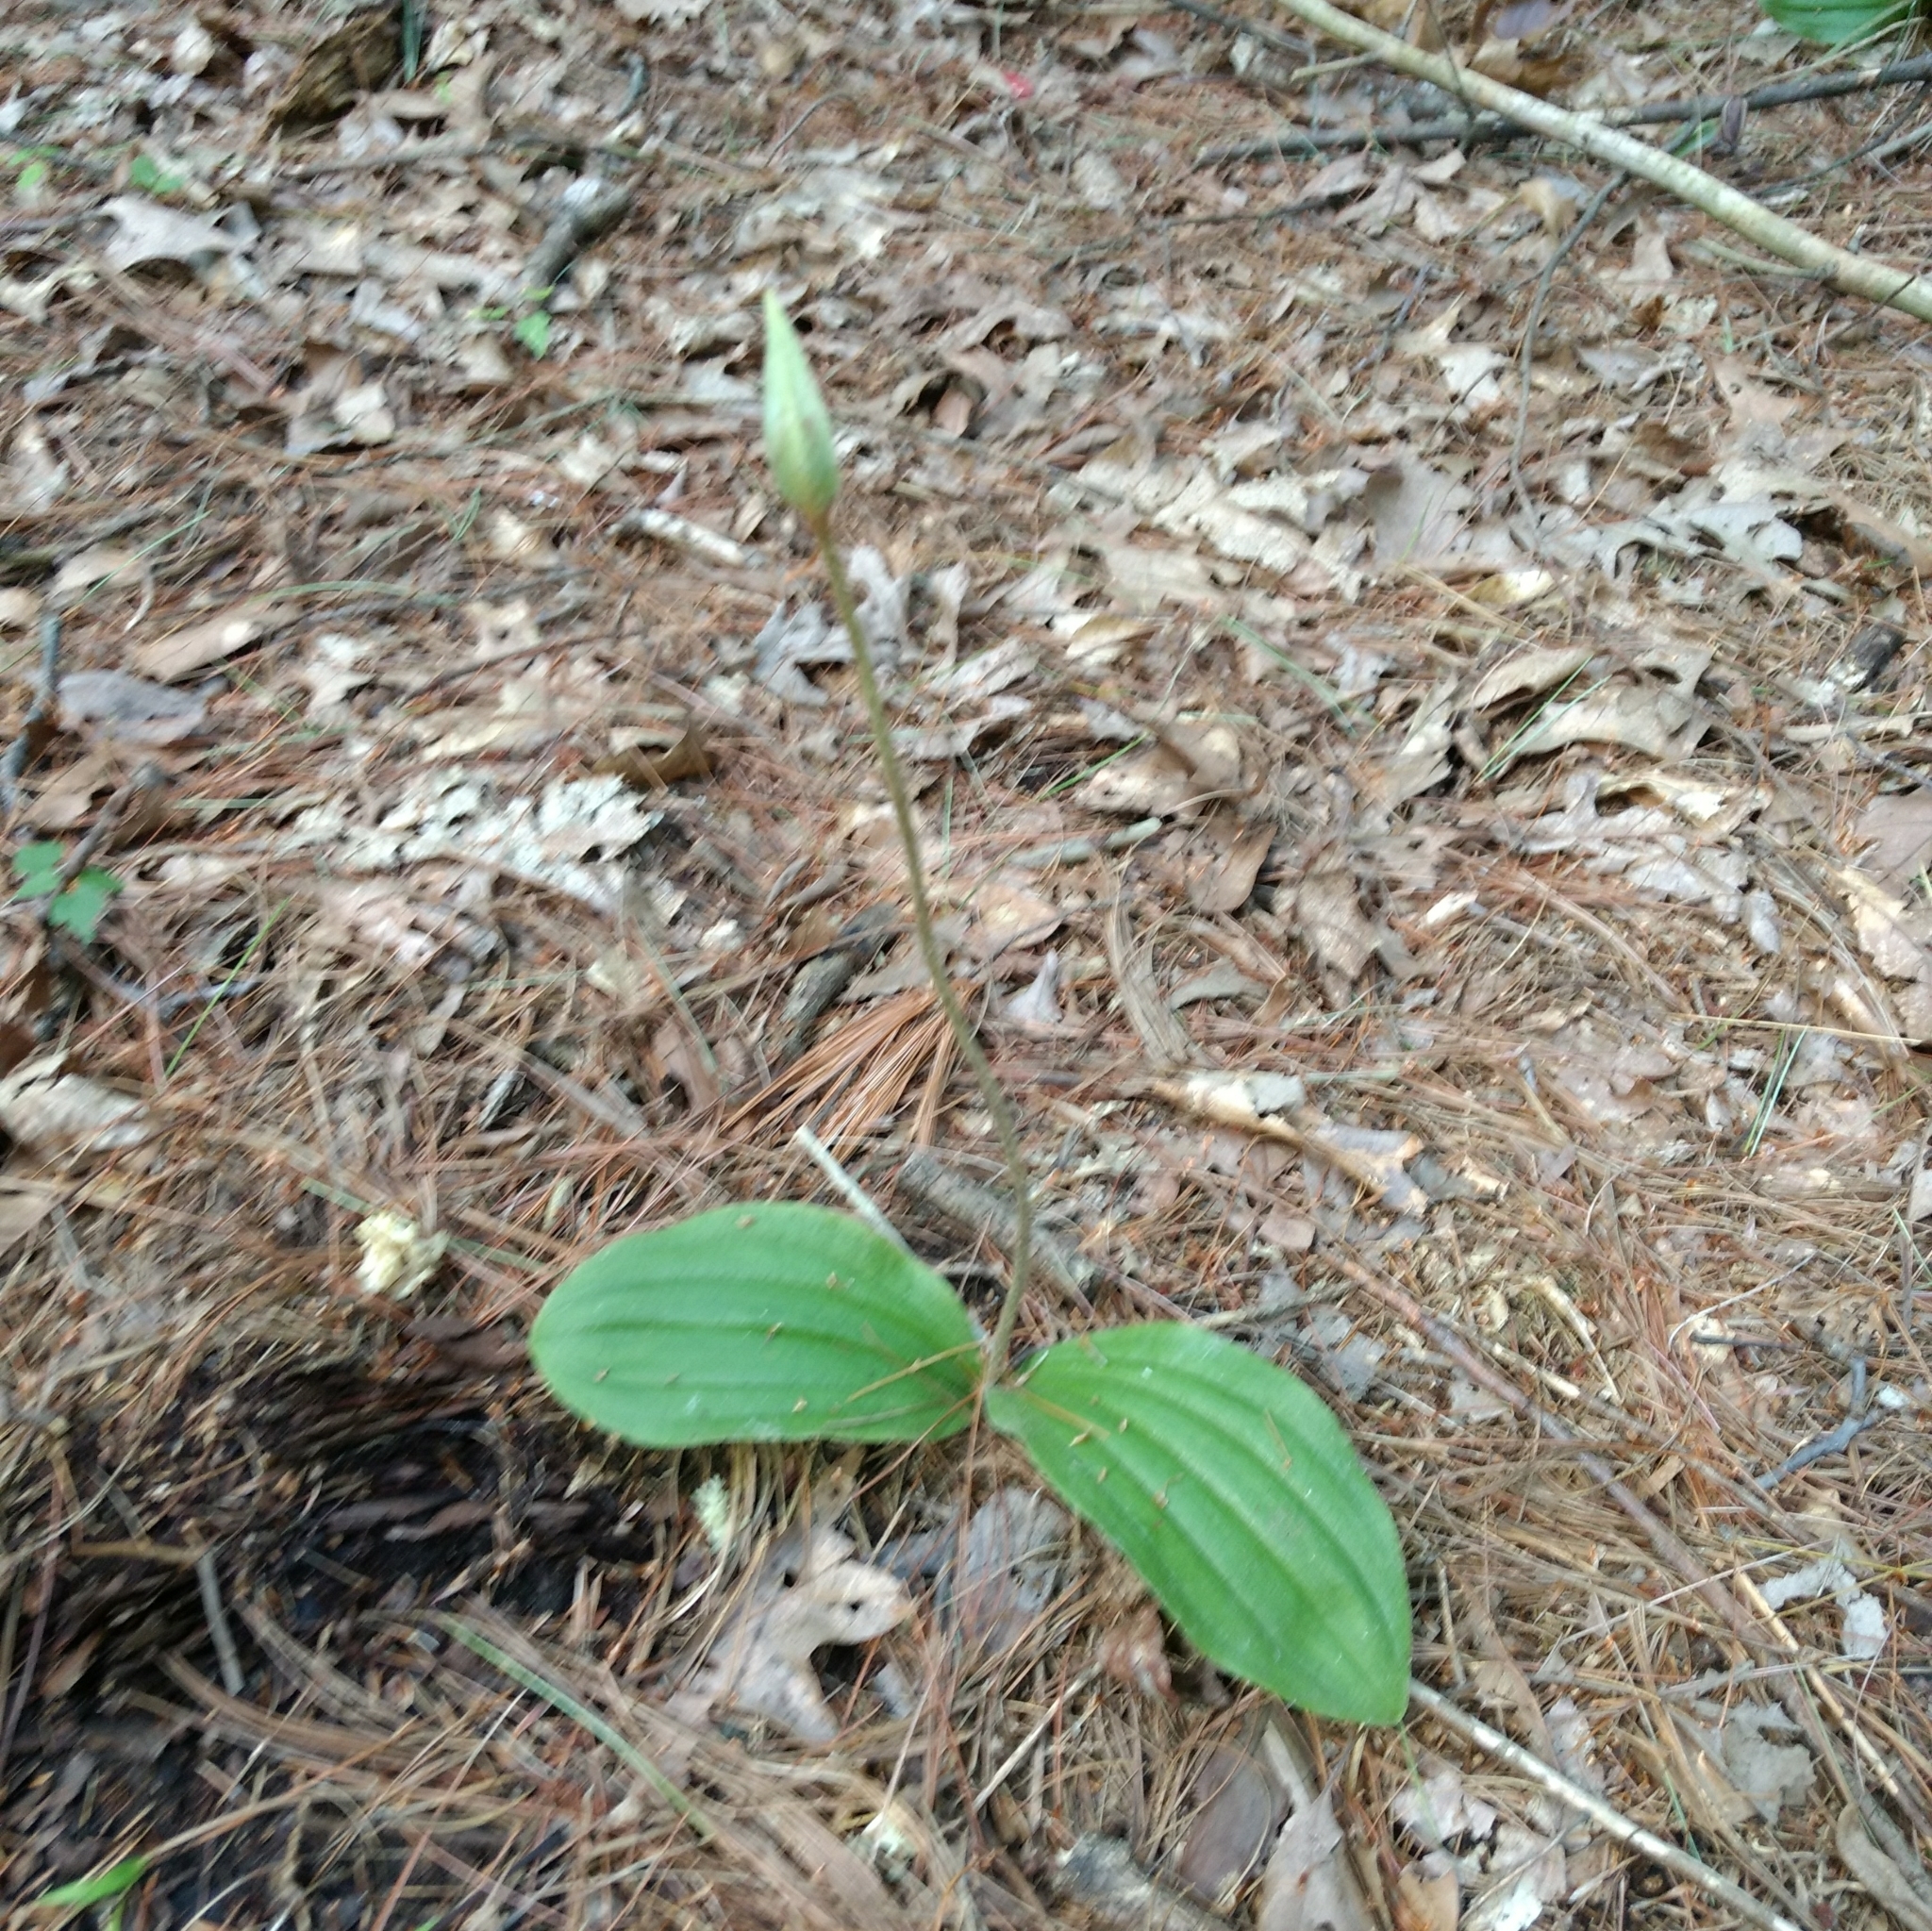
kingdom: Plantae
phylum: Tracheophyta
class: Liliopsida
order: Asparagales
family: Orchidaceae
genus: Cypripedium
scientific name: Cypripedium acaule
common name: Pink lady's-slipper
